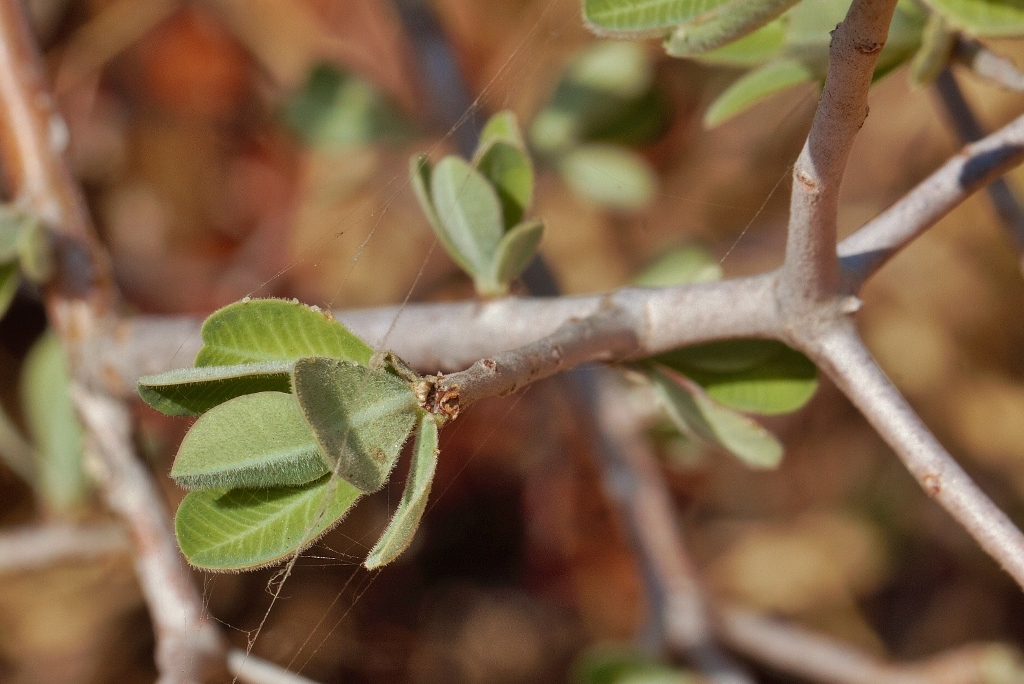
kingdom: Plantae
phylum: Tracheophyta
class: Magnoliopsida
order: Malpighiales
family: Euphorbiaceae
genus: Euphorbia
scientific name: Euphorbia matabelensis
